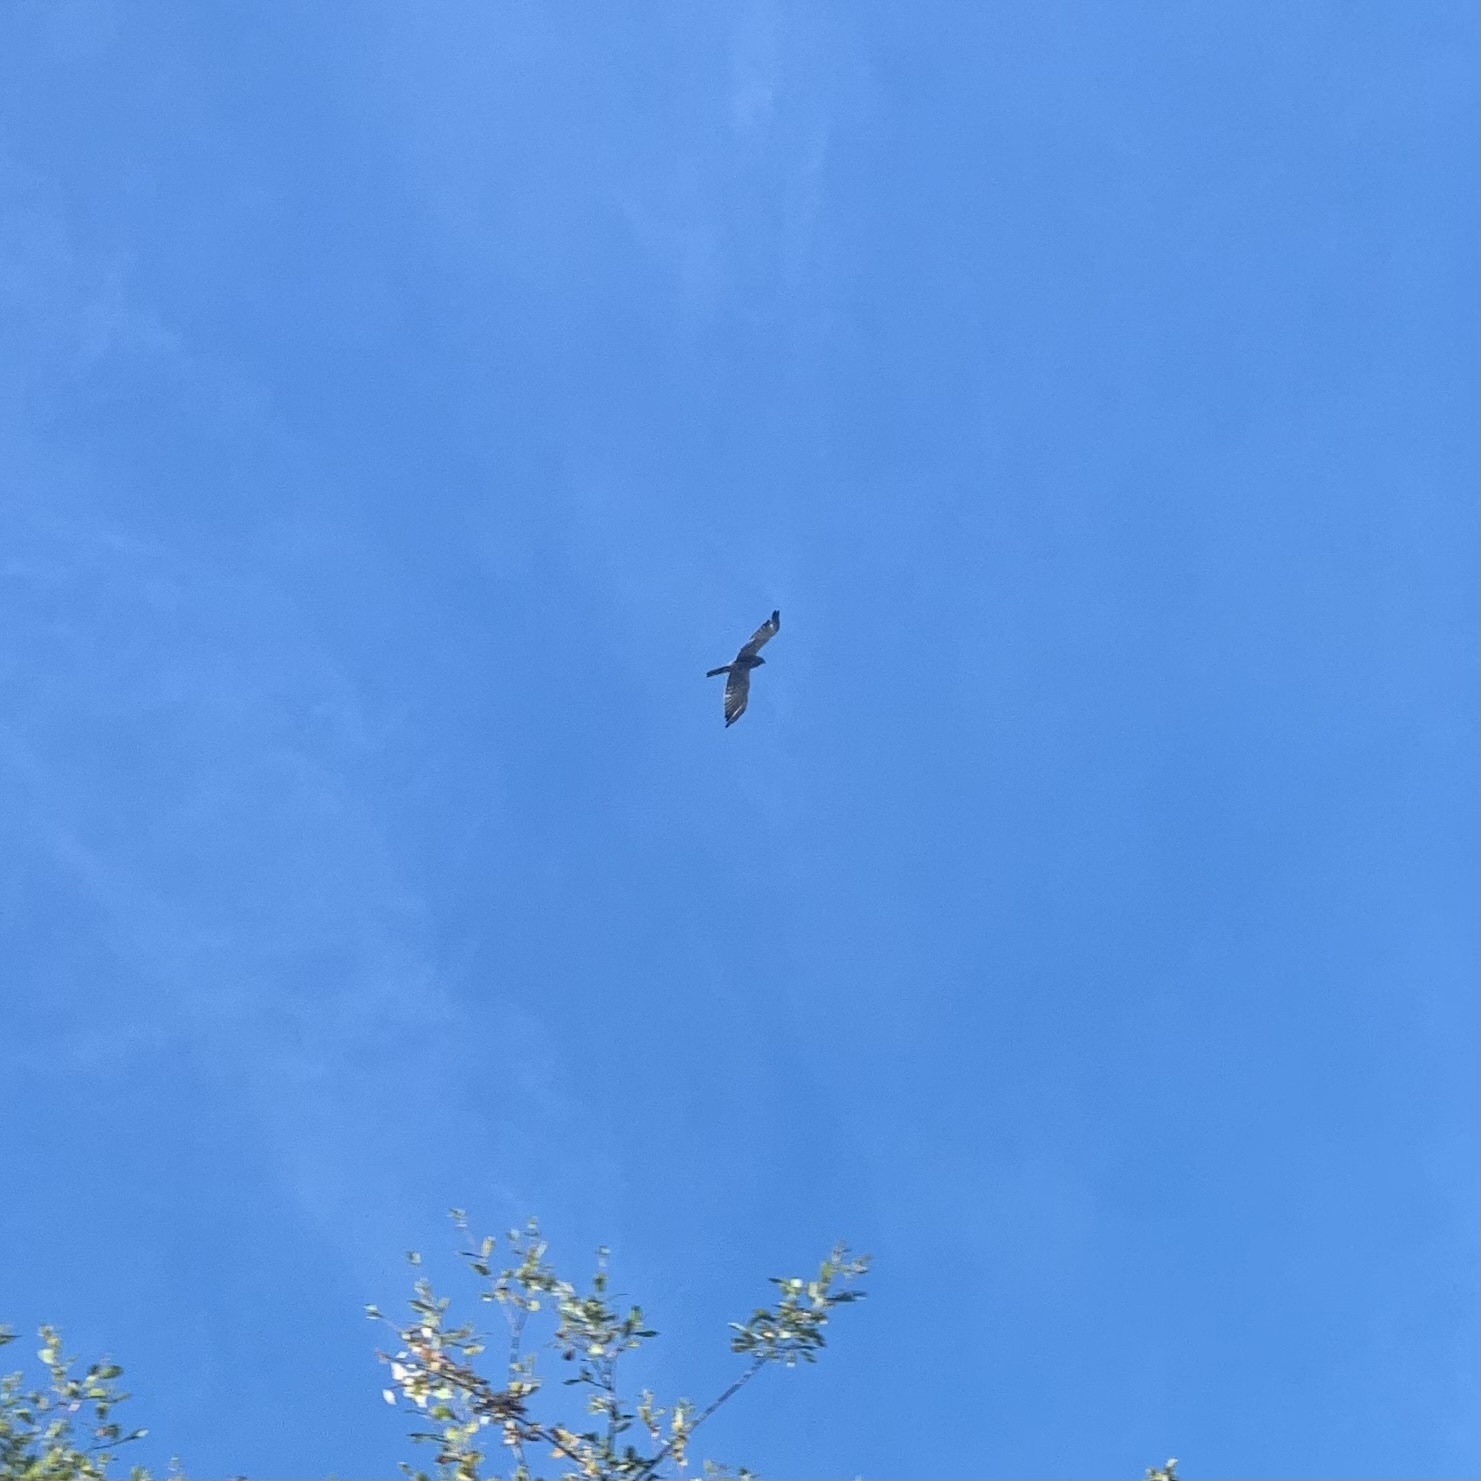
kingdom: Animalia
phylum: Chordata
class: Aves
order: Accipitriformes
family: Accipitridae
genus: Circus
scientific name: Circus approximans
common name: Swamp harrier
